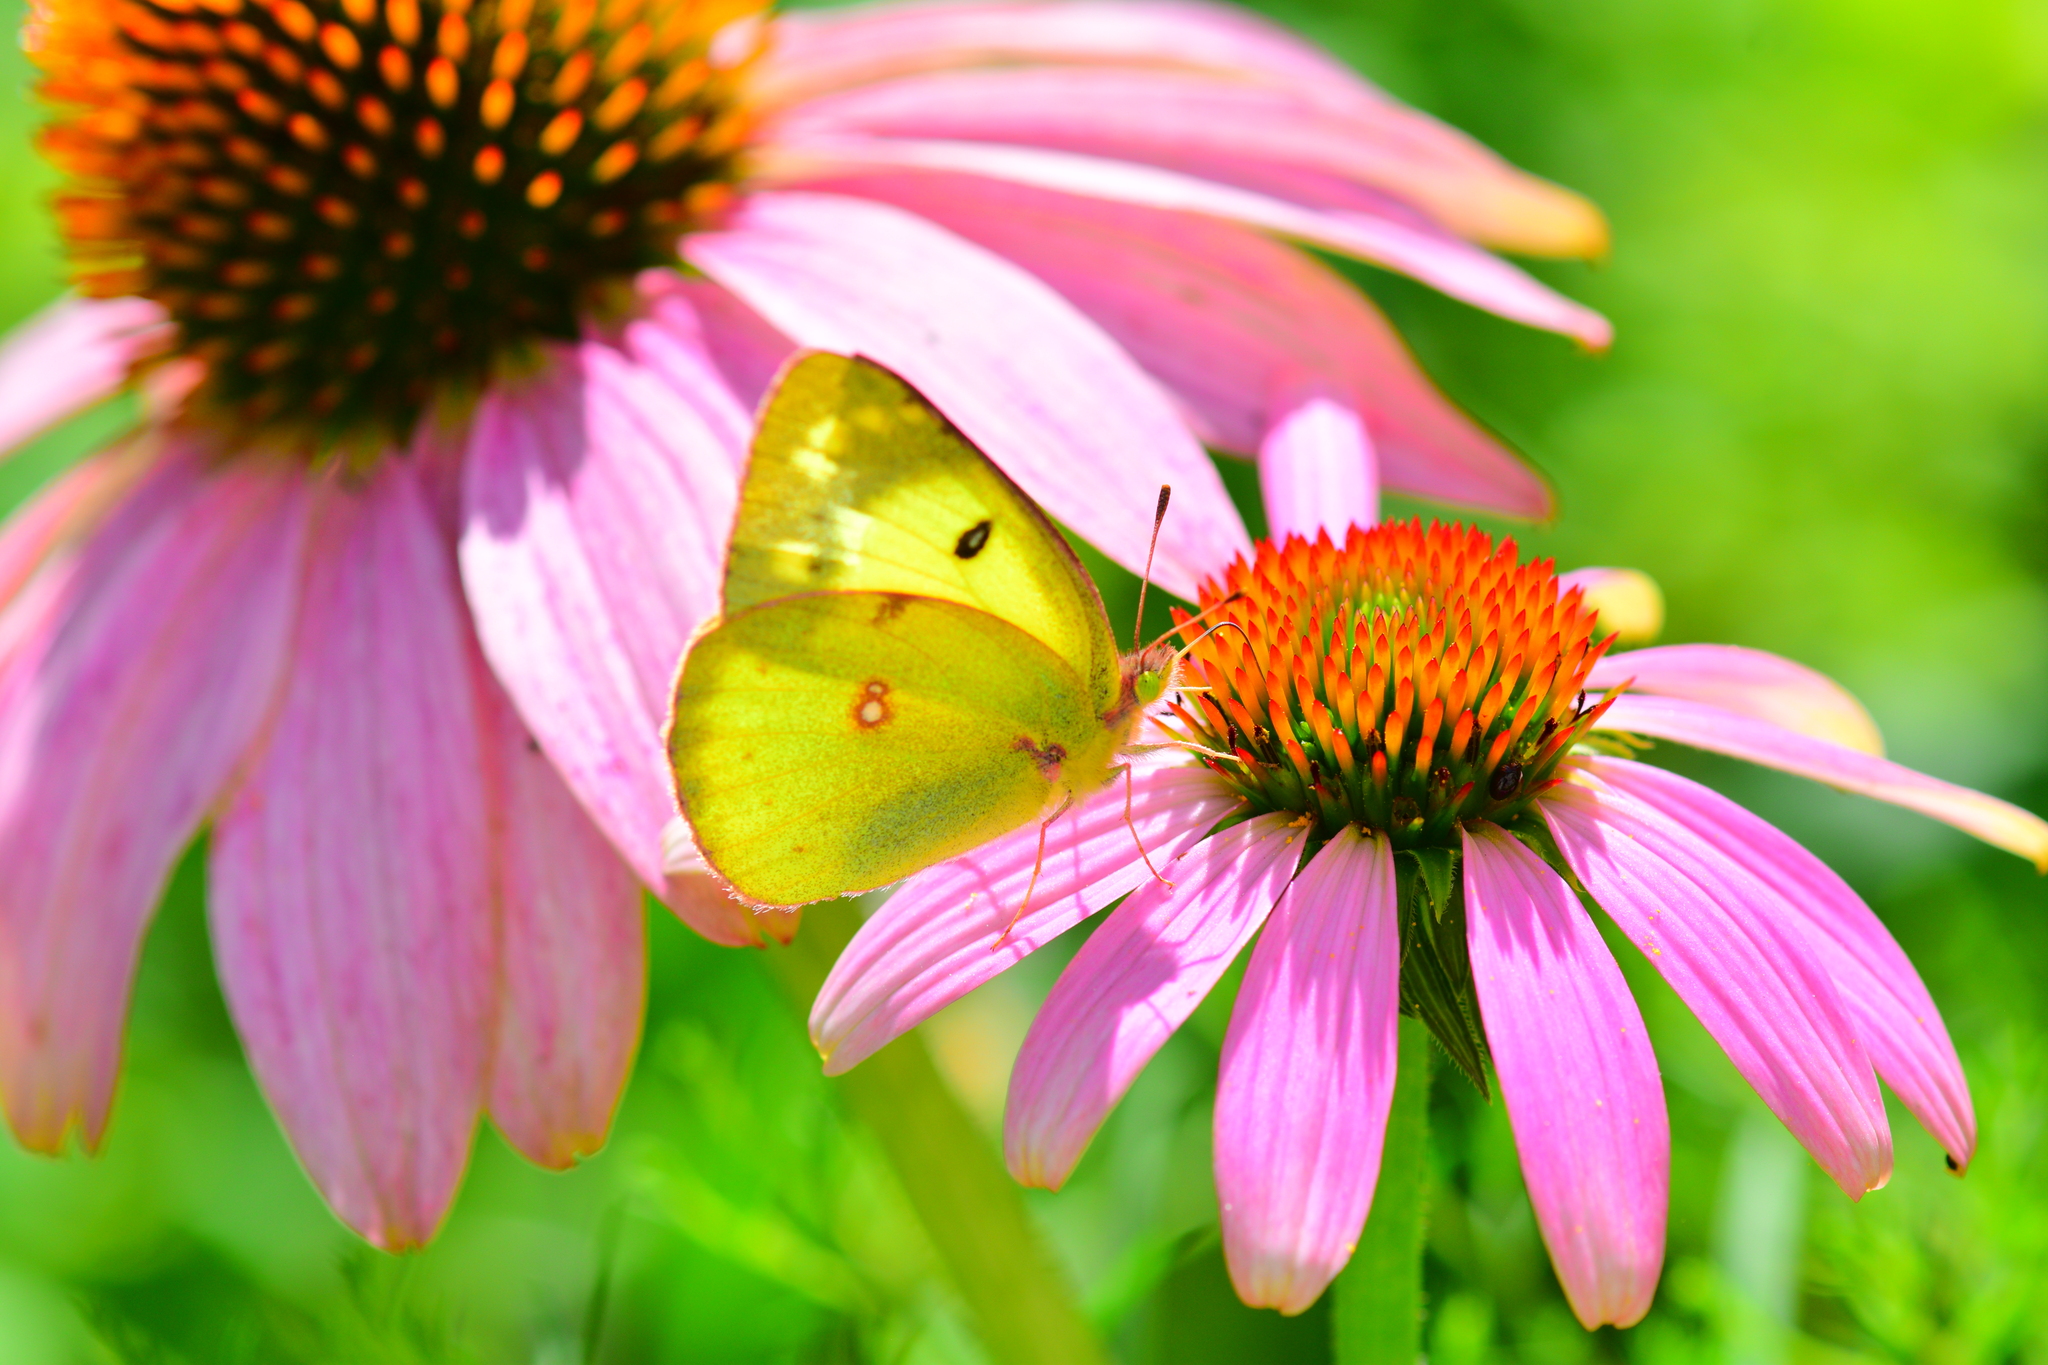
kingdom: Animalia
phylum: Arthropoda
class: Insecta
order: Lepidoptera
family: Pieridae
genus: Colias
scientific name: Colias philodice
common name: Clouded sulphur
